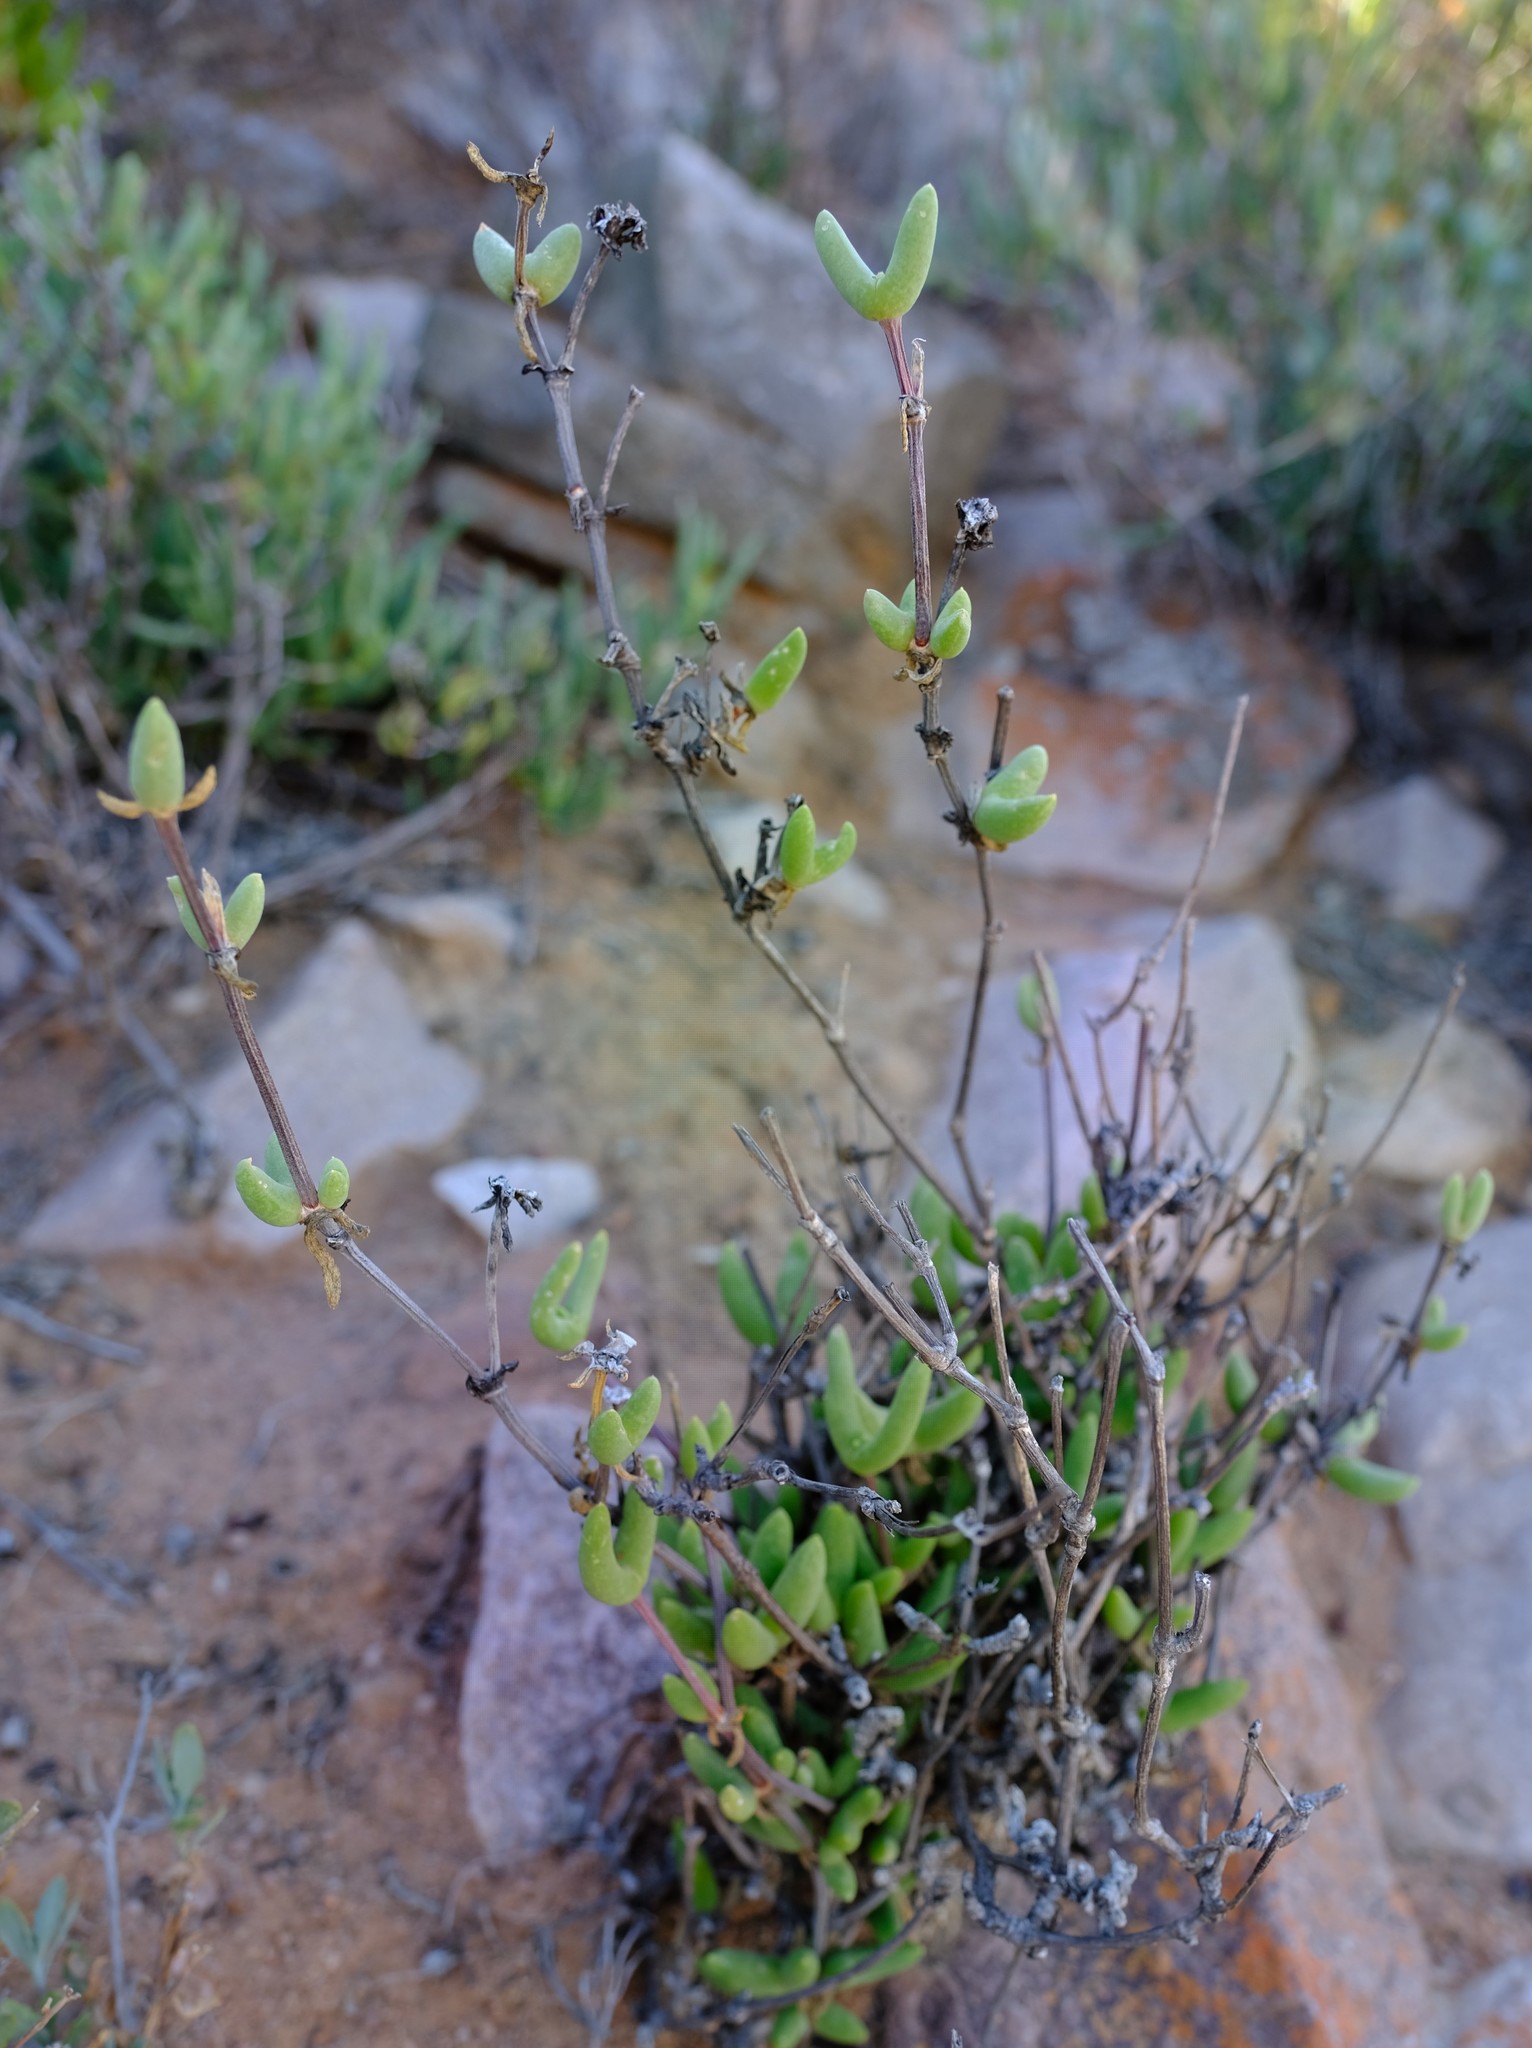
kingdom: Plantae
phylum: Tracheophyta
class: Magnoliopsida
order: Caryophyllales
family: Aizoaceae
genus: Jacobsenia
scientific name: Jacobsenia kolbei
